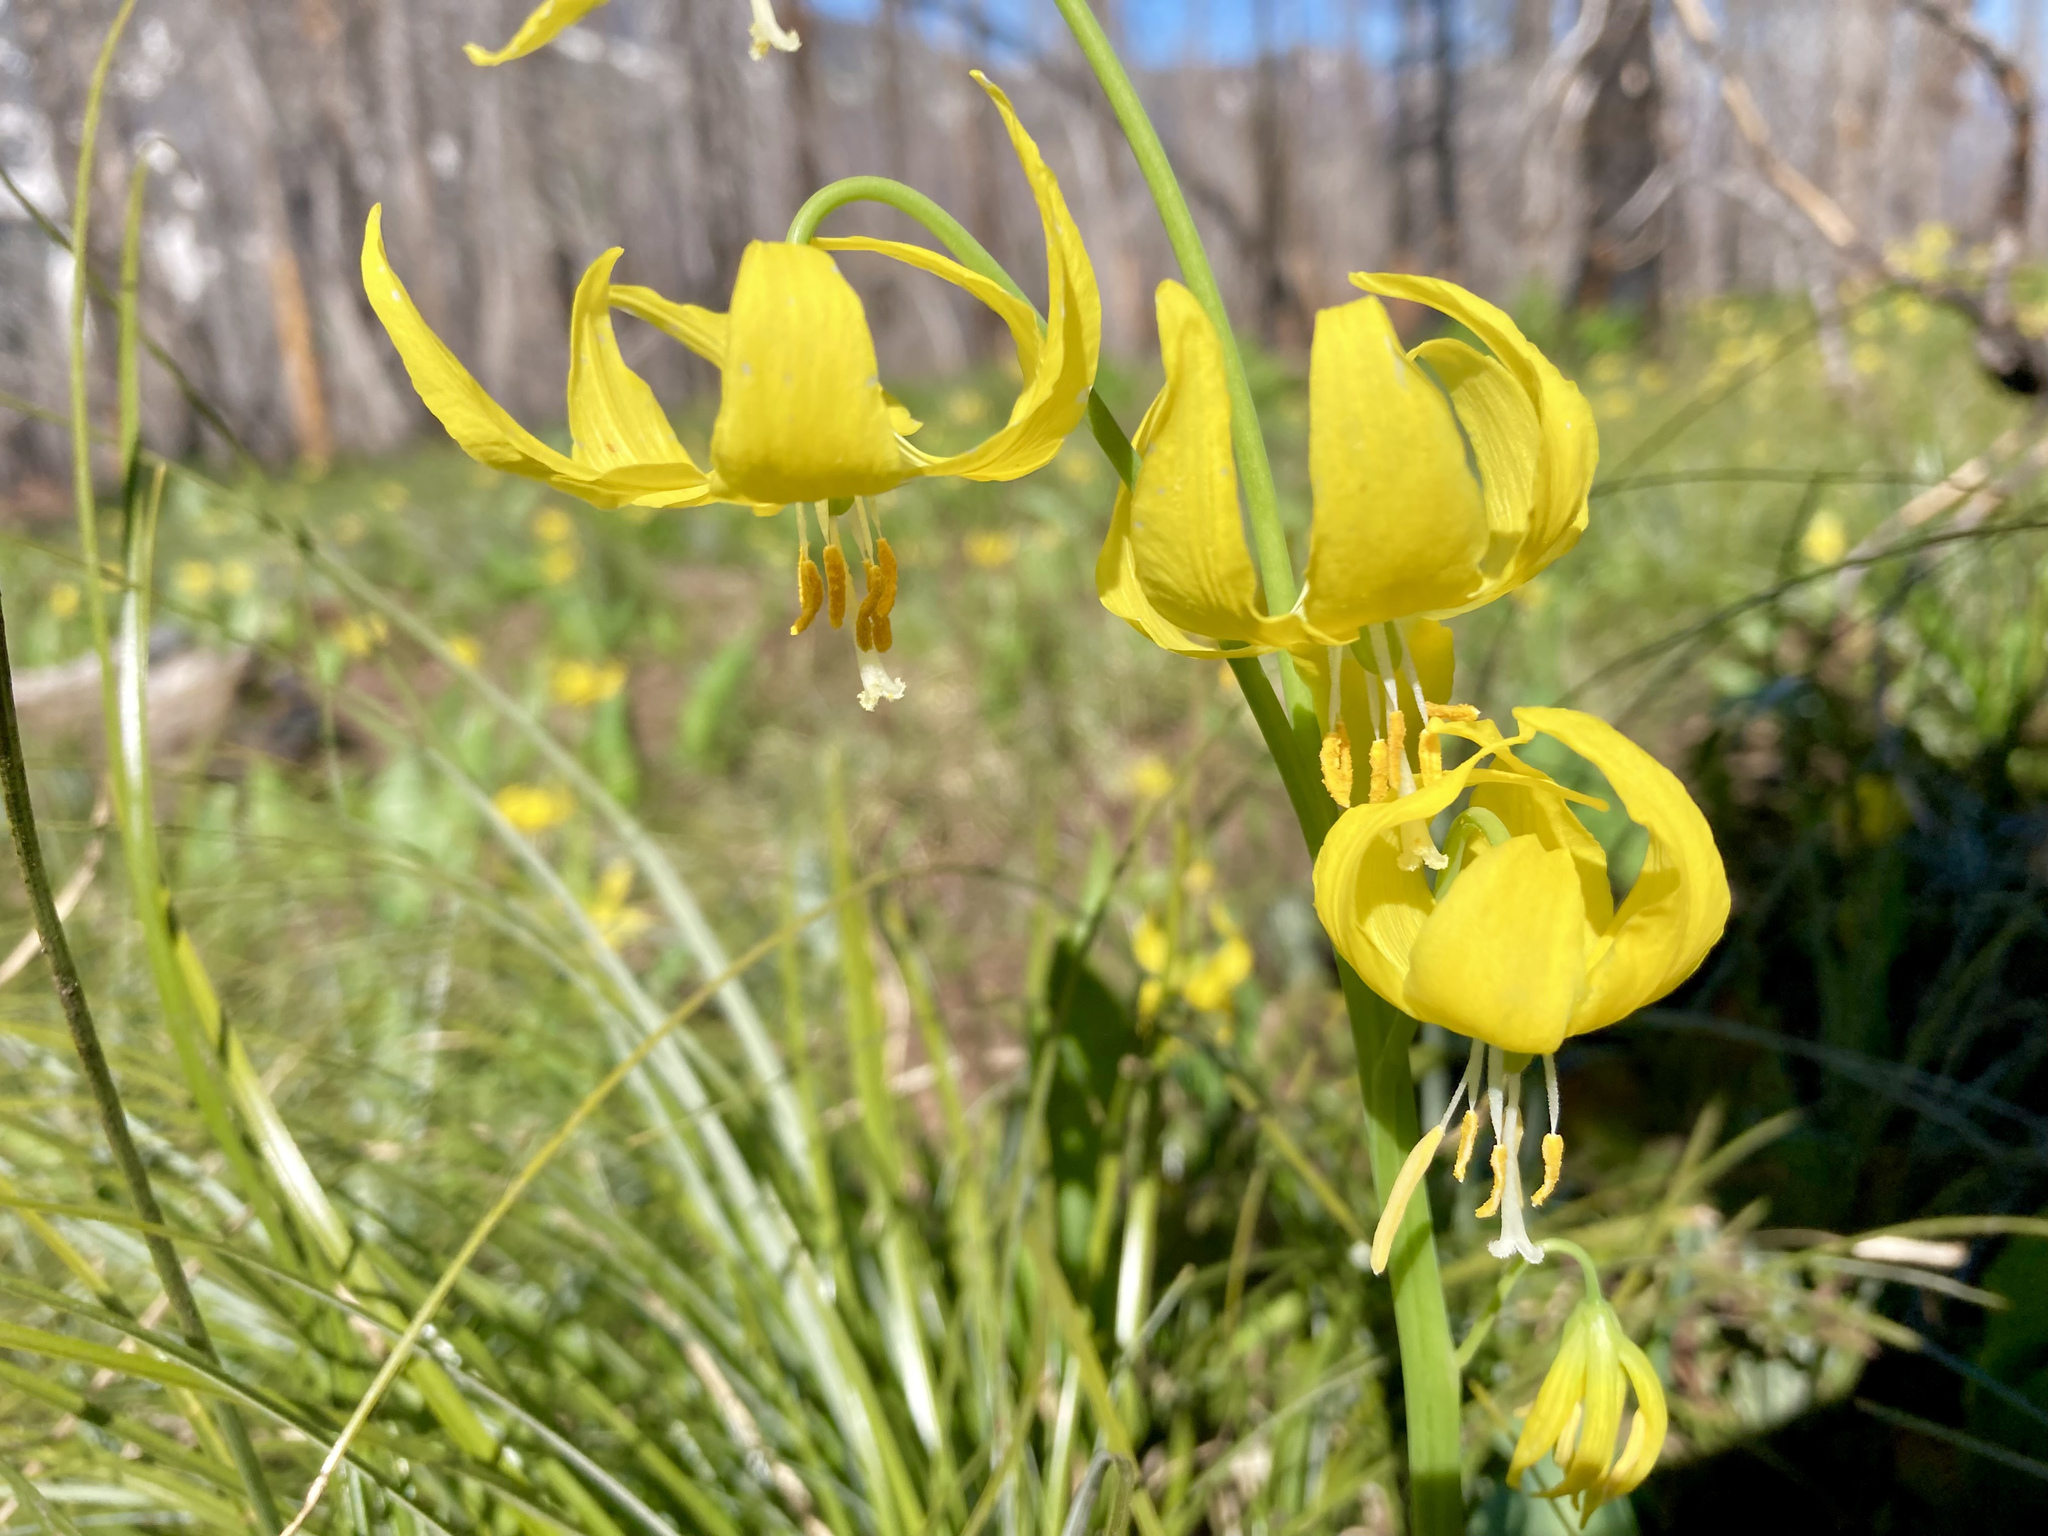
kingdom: Plantae
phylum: Tracheophyta
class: Liliopsida
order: Liliales
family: Liliaceae
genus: Erythronium
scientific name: Erythronium grandiflorum
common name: Avalanche-lily
